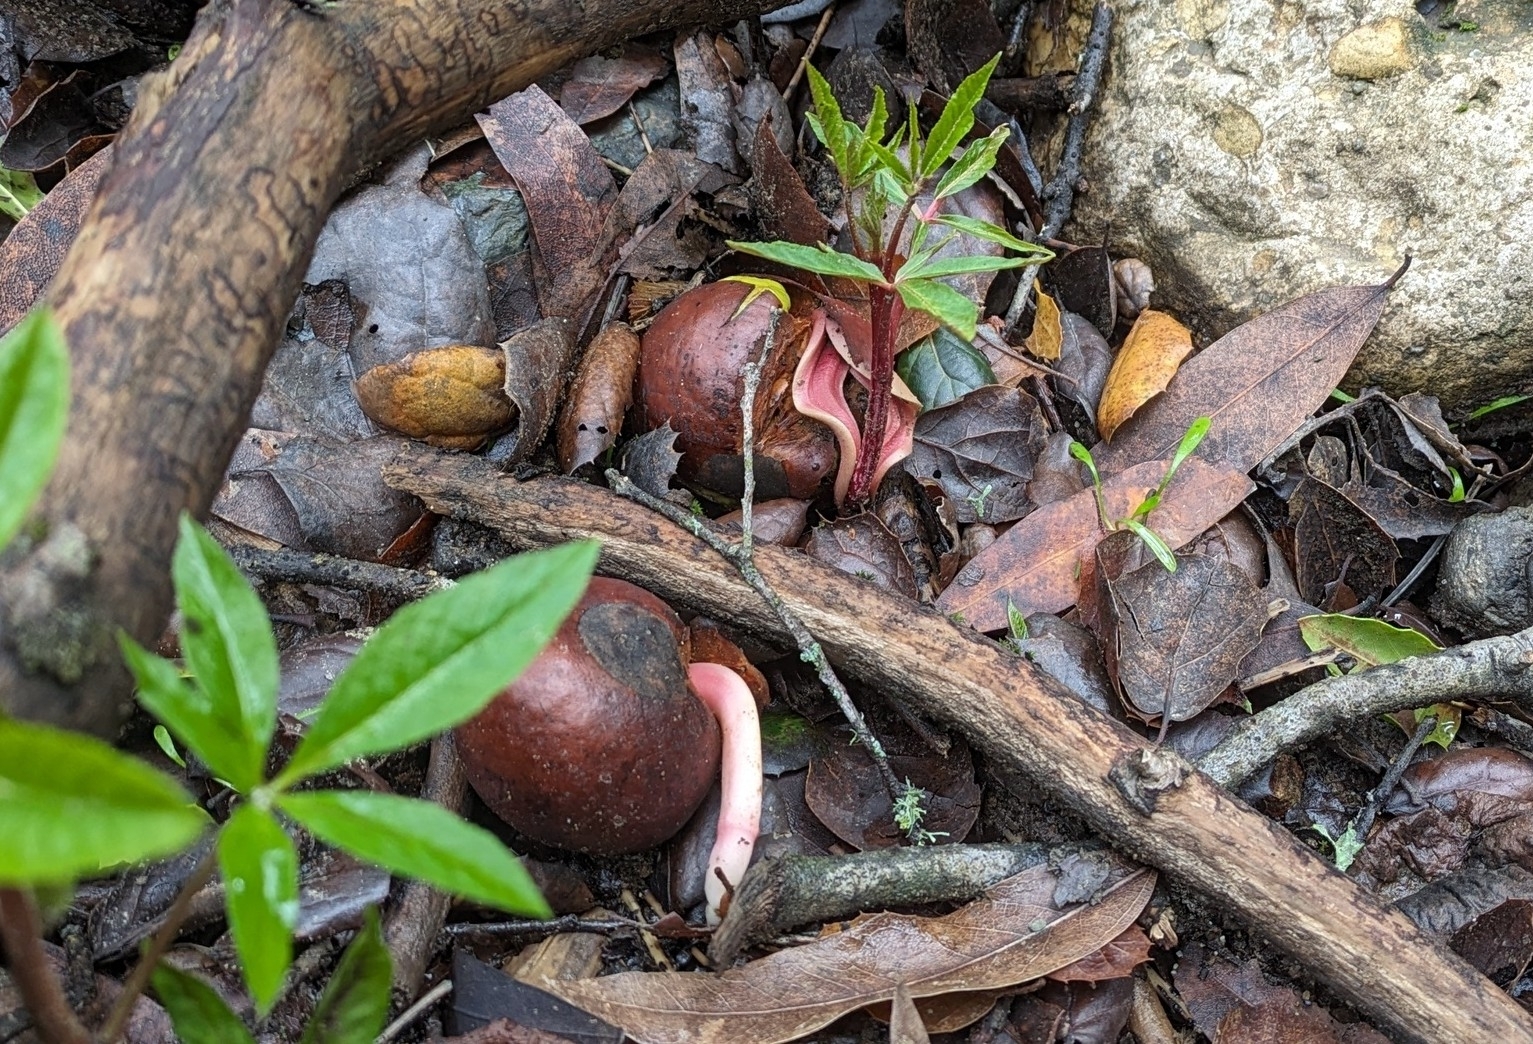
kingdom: Plantae
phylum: Tracheophyta
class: Magnoliopsida
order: Sapindales
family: Sapindaceae
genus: Aesculus
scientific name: Aesculus californica
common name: California buckeye
